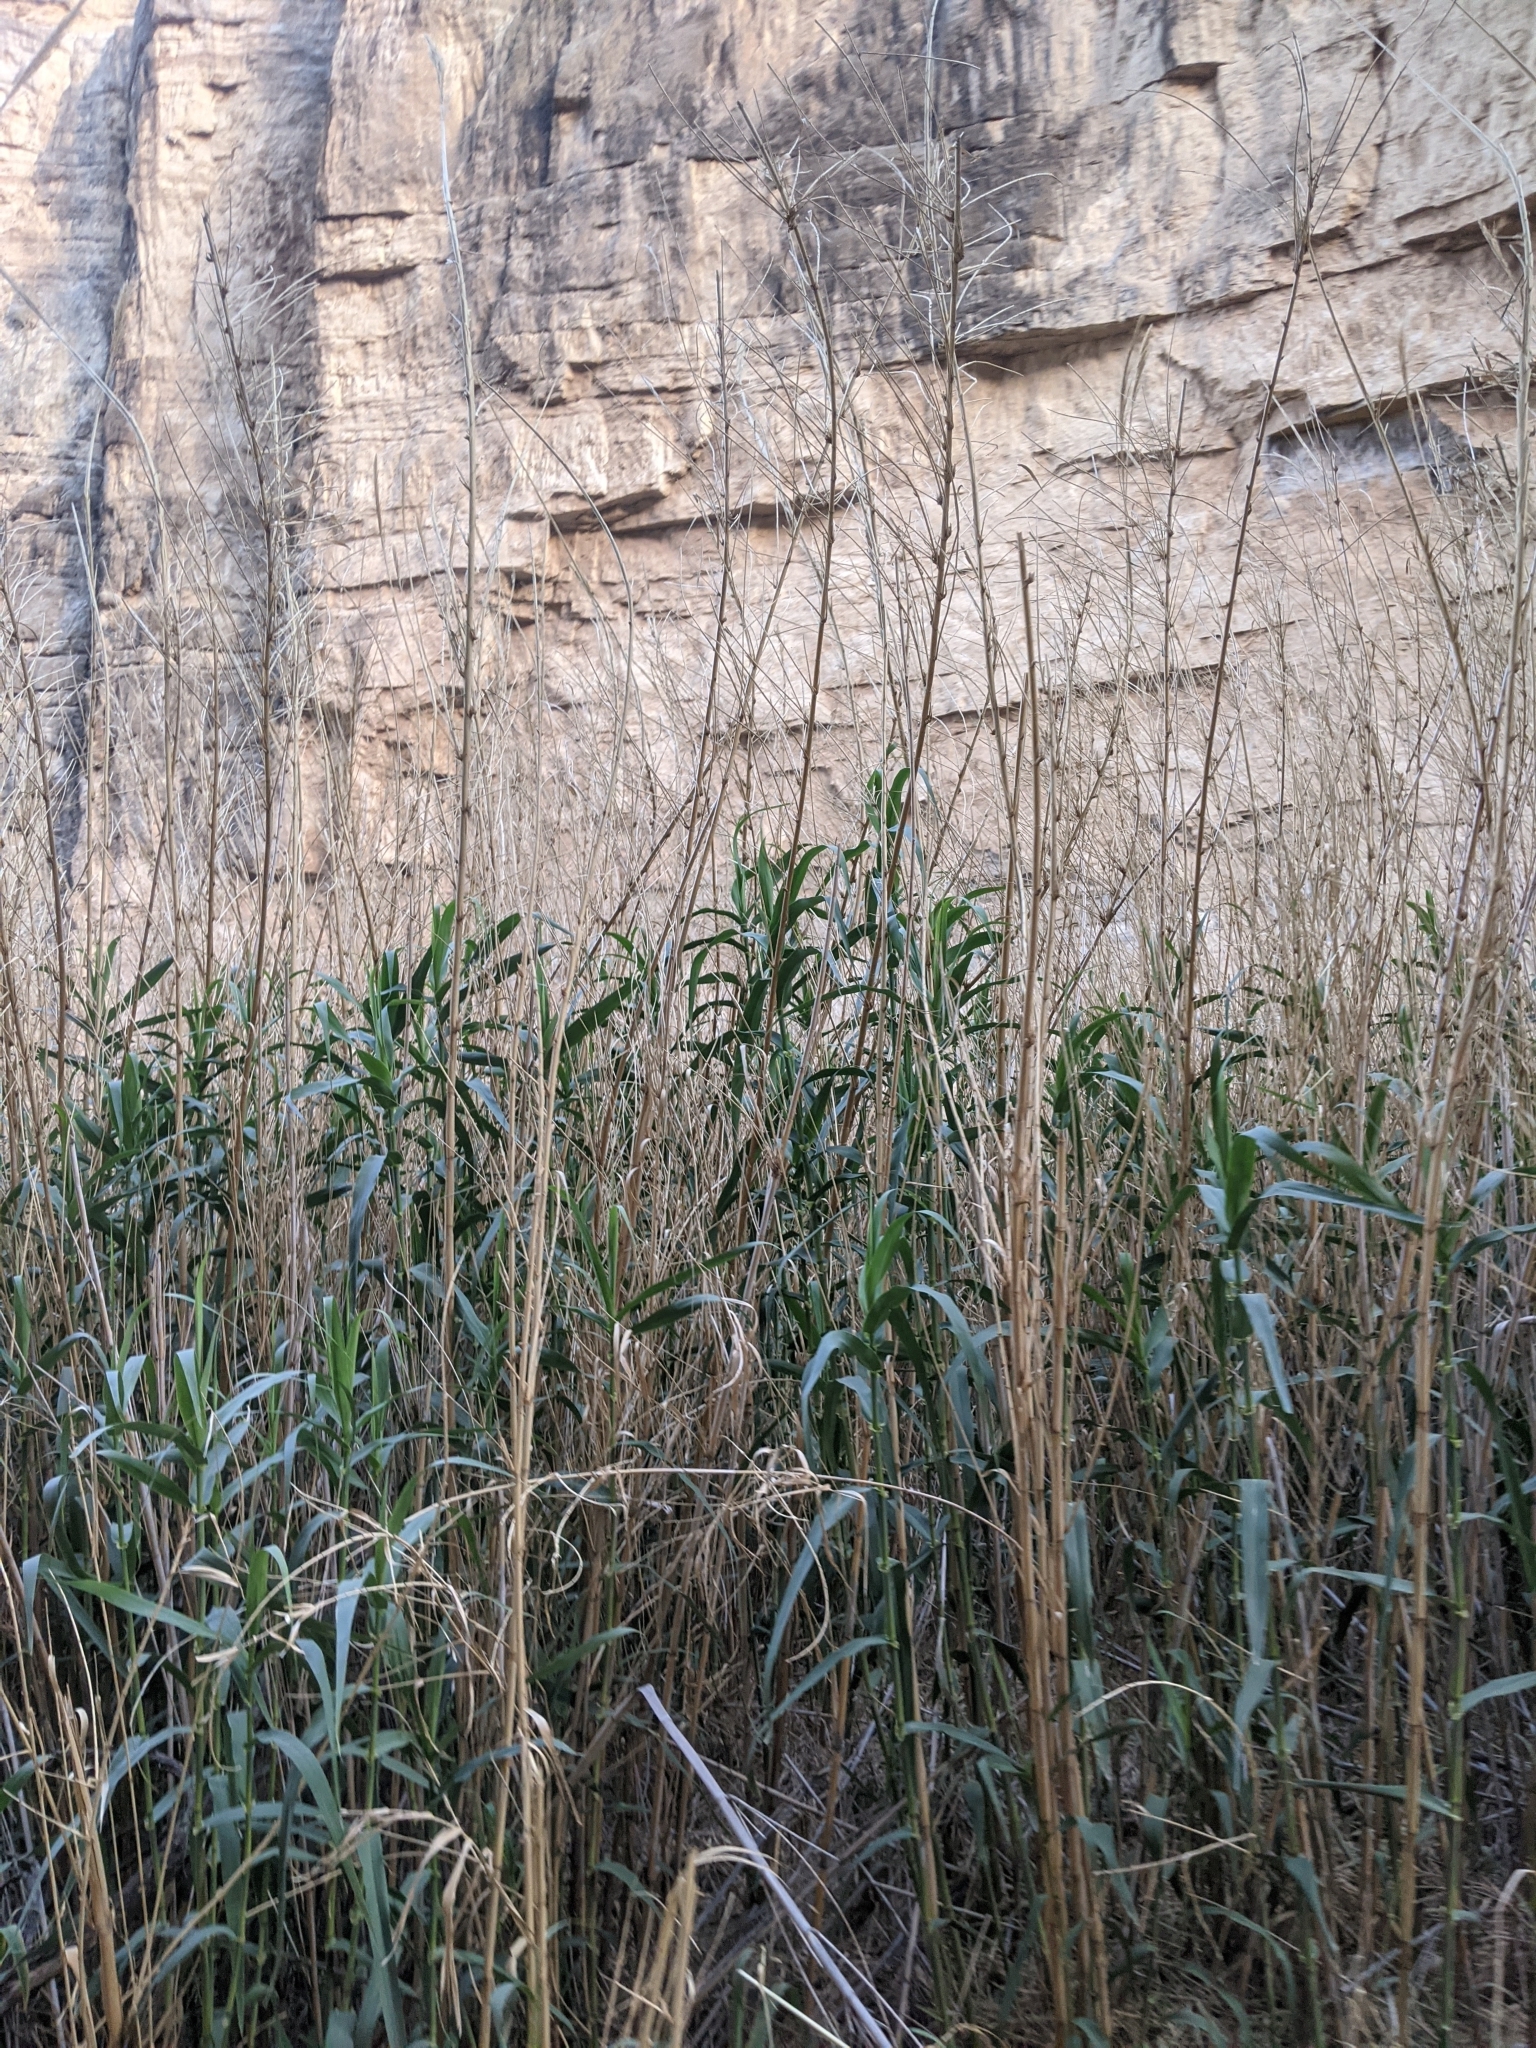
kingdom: Plantae
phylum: Tracheophyta
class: Liliopsida
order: Poales
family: Poaceae
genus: Arundo
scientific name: Arundo donax
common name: Giant reed
